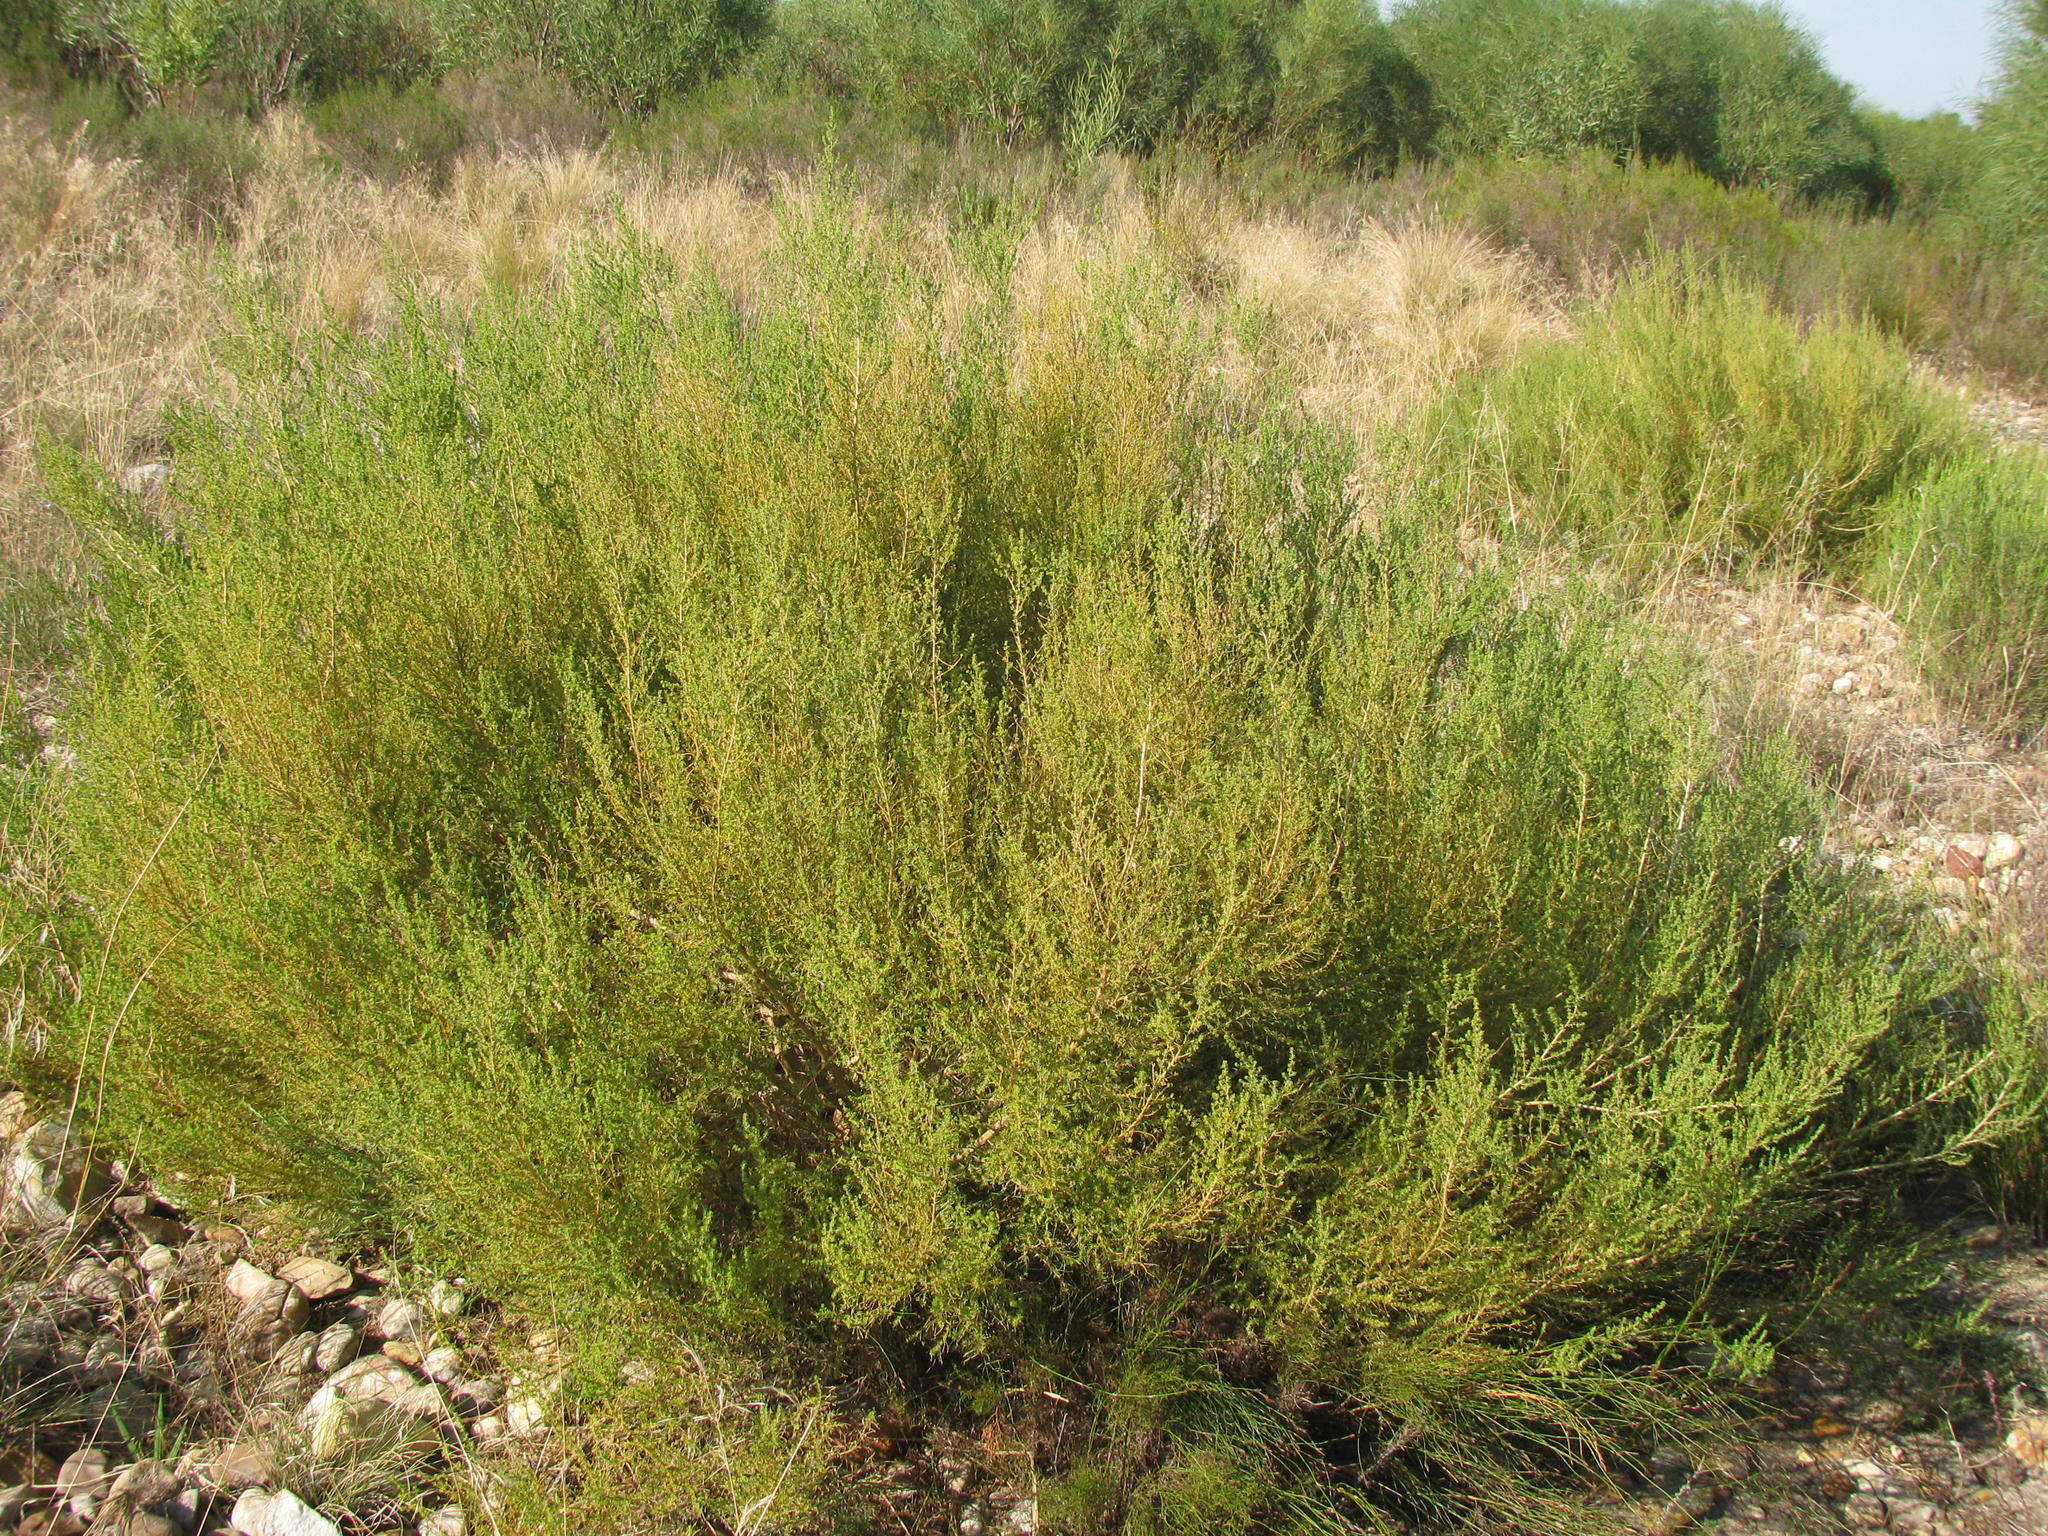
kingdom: Plantae
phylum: Tracheophyta
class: Magnoliopsida
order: Fabales
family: Fabaceae
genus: Aspalathus
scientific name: Aspalathus amoena
